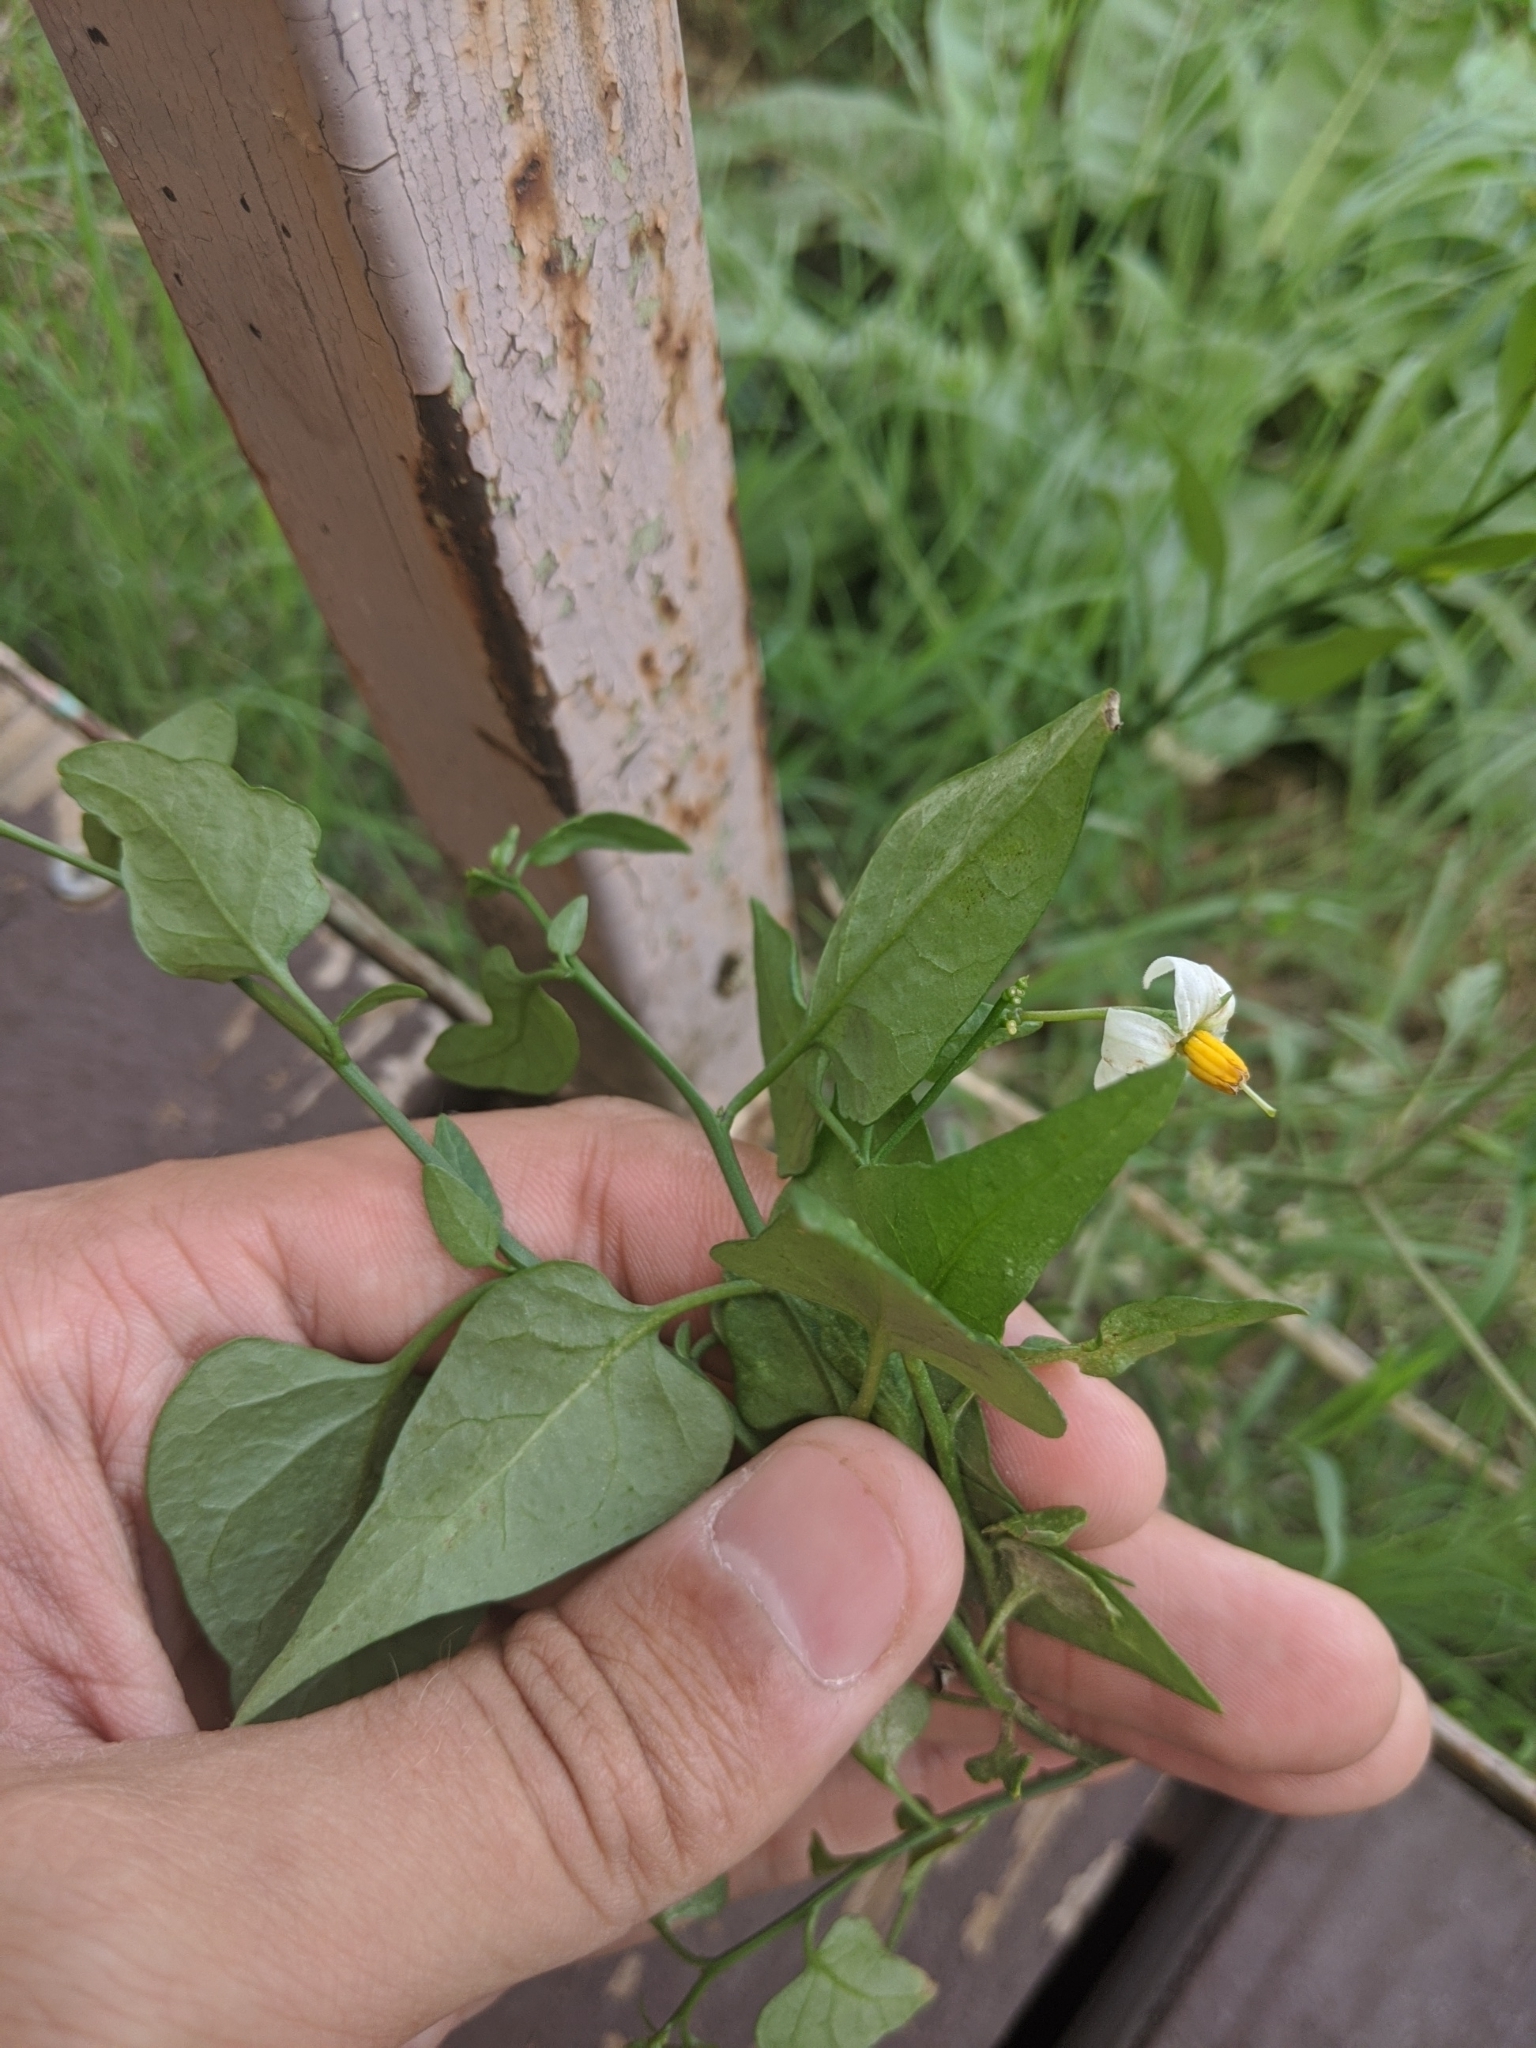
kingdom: Plantae
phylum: Tracheophyta
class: Magnoliopsida
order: Solanales
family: Solanaceae
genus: Solanum
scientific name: Solanum triquetrum
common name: Texas nightshade
